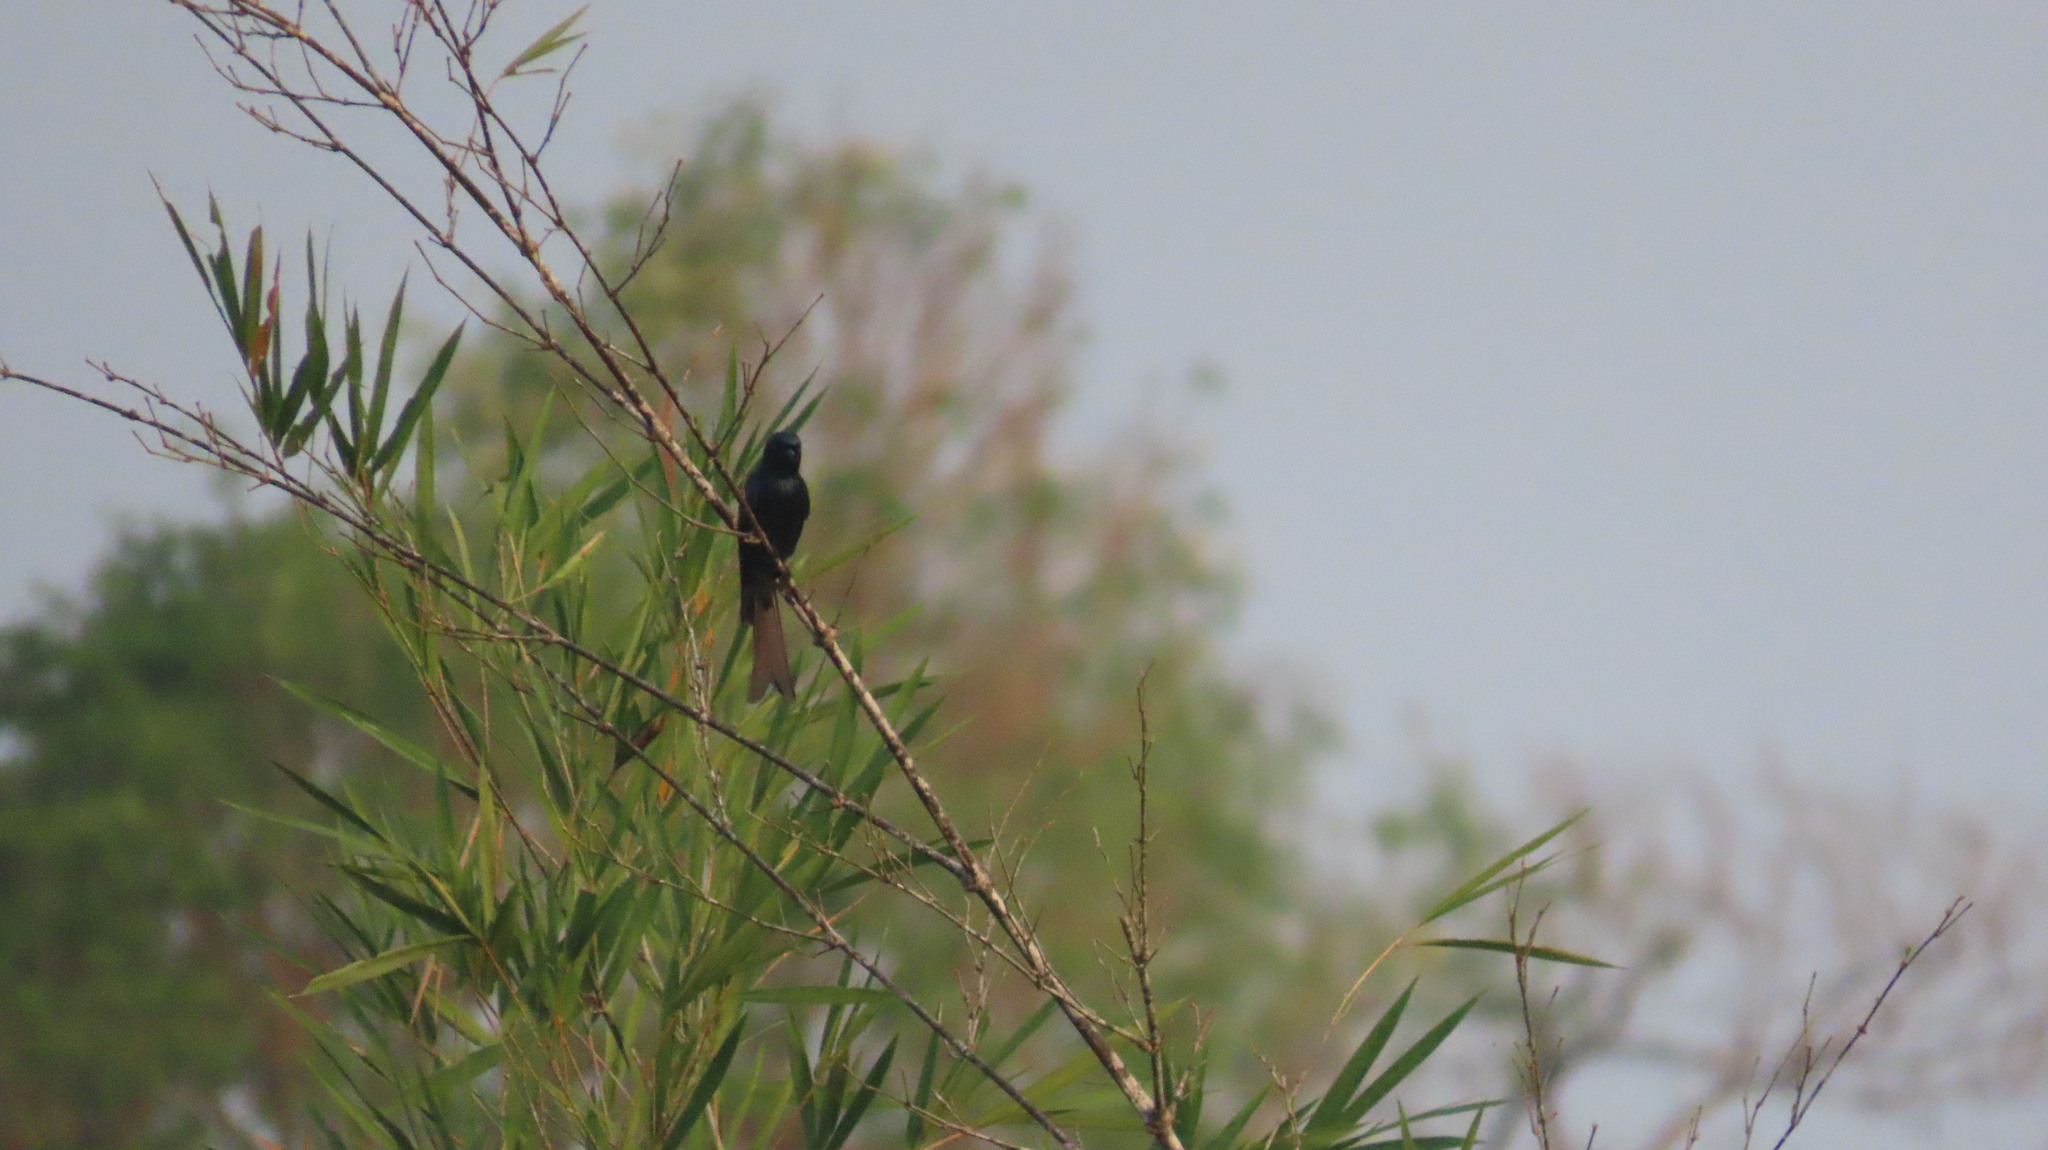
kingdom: Animalia
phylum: Chordata
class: Aves
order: Passeriformes
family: Dicruridae
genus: Dicrurus
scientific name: Dicrurus aeneus
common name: Bronzed drongo
